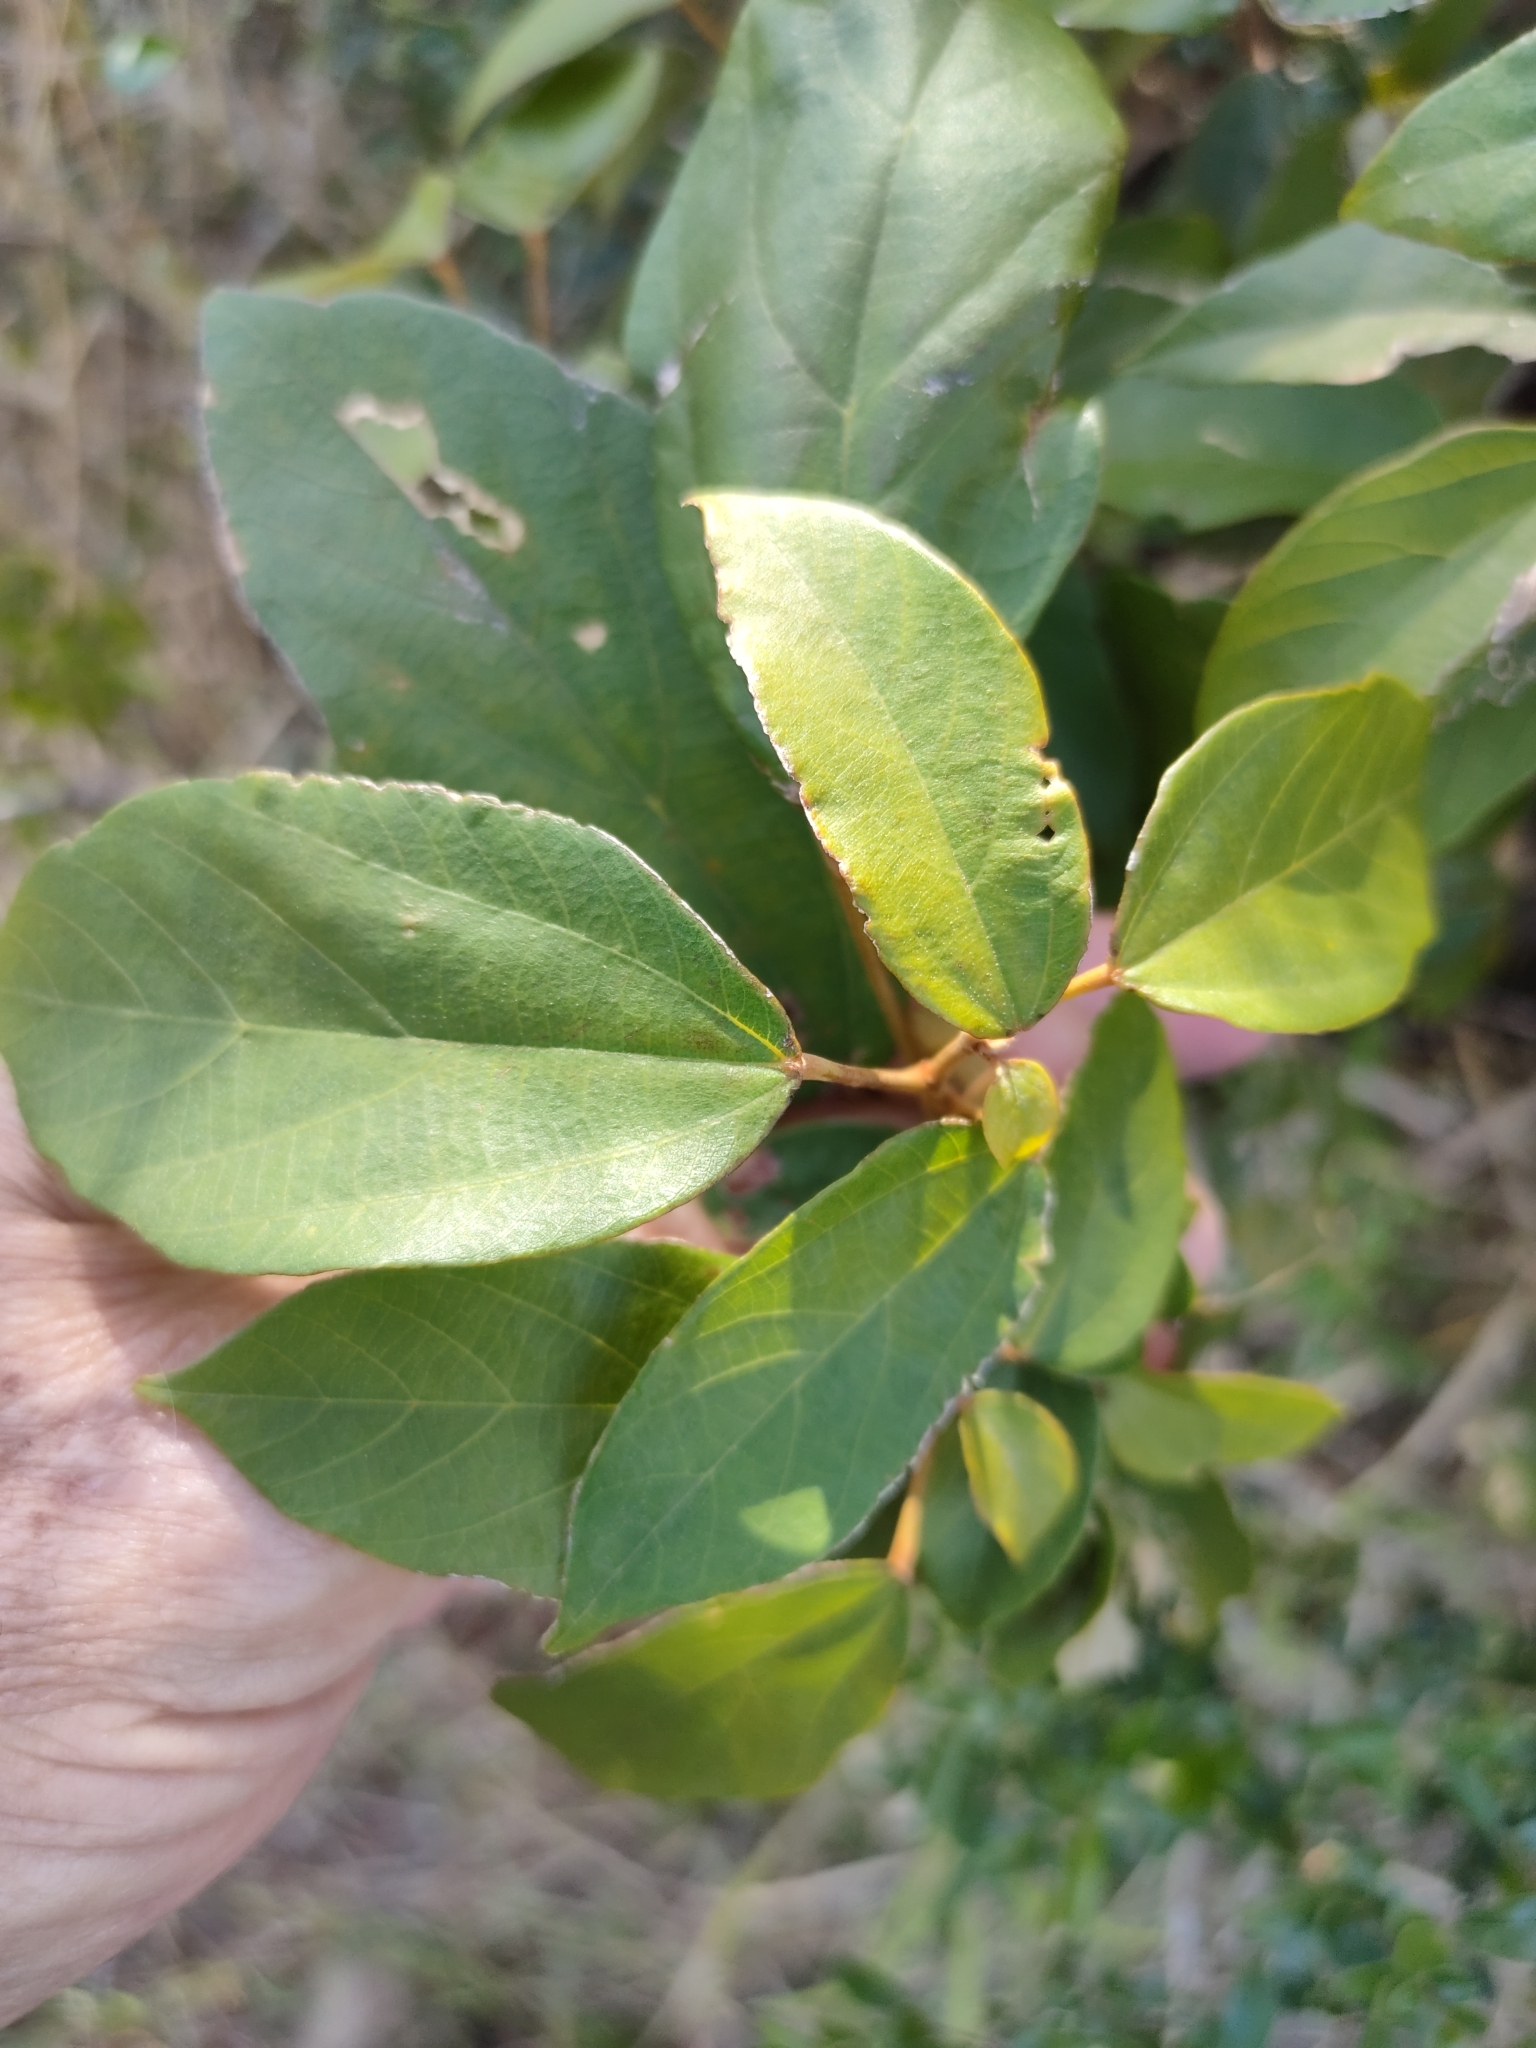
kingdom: Plantae
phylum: Tracheophyta
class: Magnoliopsida
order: Malpighiales
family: Euphorbiaceae
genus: Mallotus
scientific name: Mallotus philippensis
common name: Kamala tree
